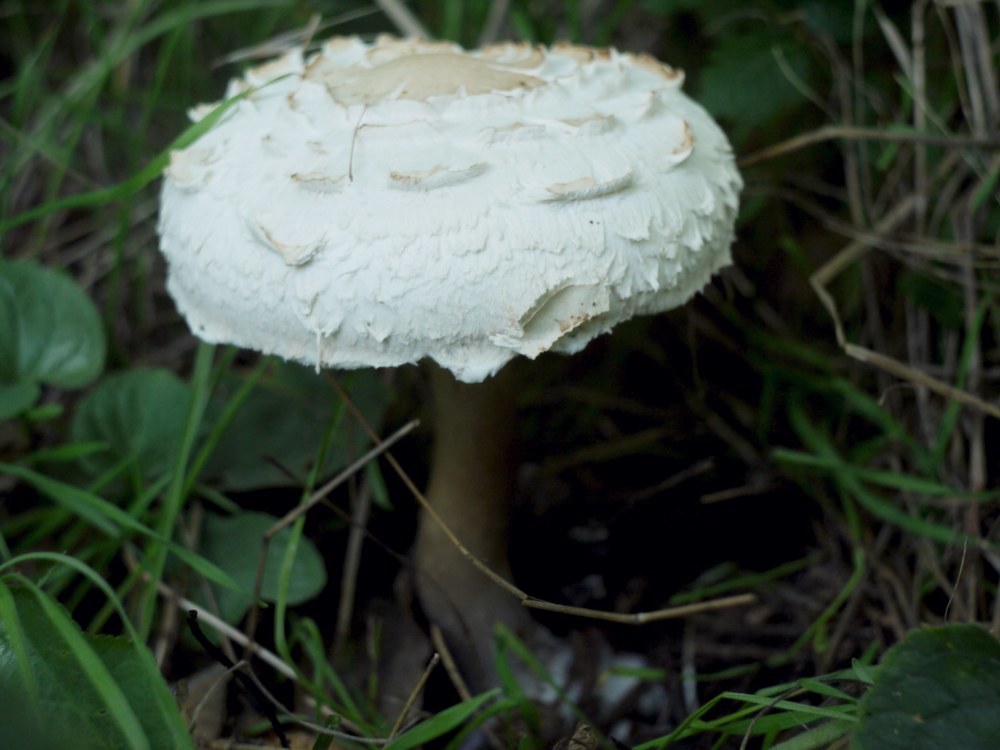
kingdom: Fungi
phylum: Basidiomycota
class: Agaricomycetes
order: Agaricales
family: Agaricaceae
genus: Chlorophyllum
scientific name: Chlorophyllum rhacodes
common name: Shaggy parasol
